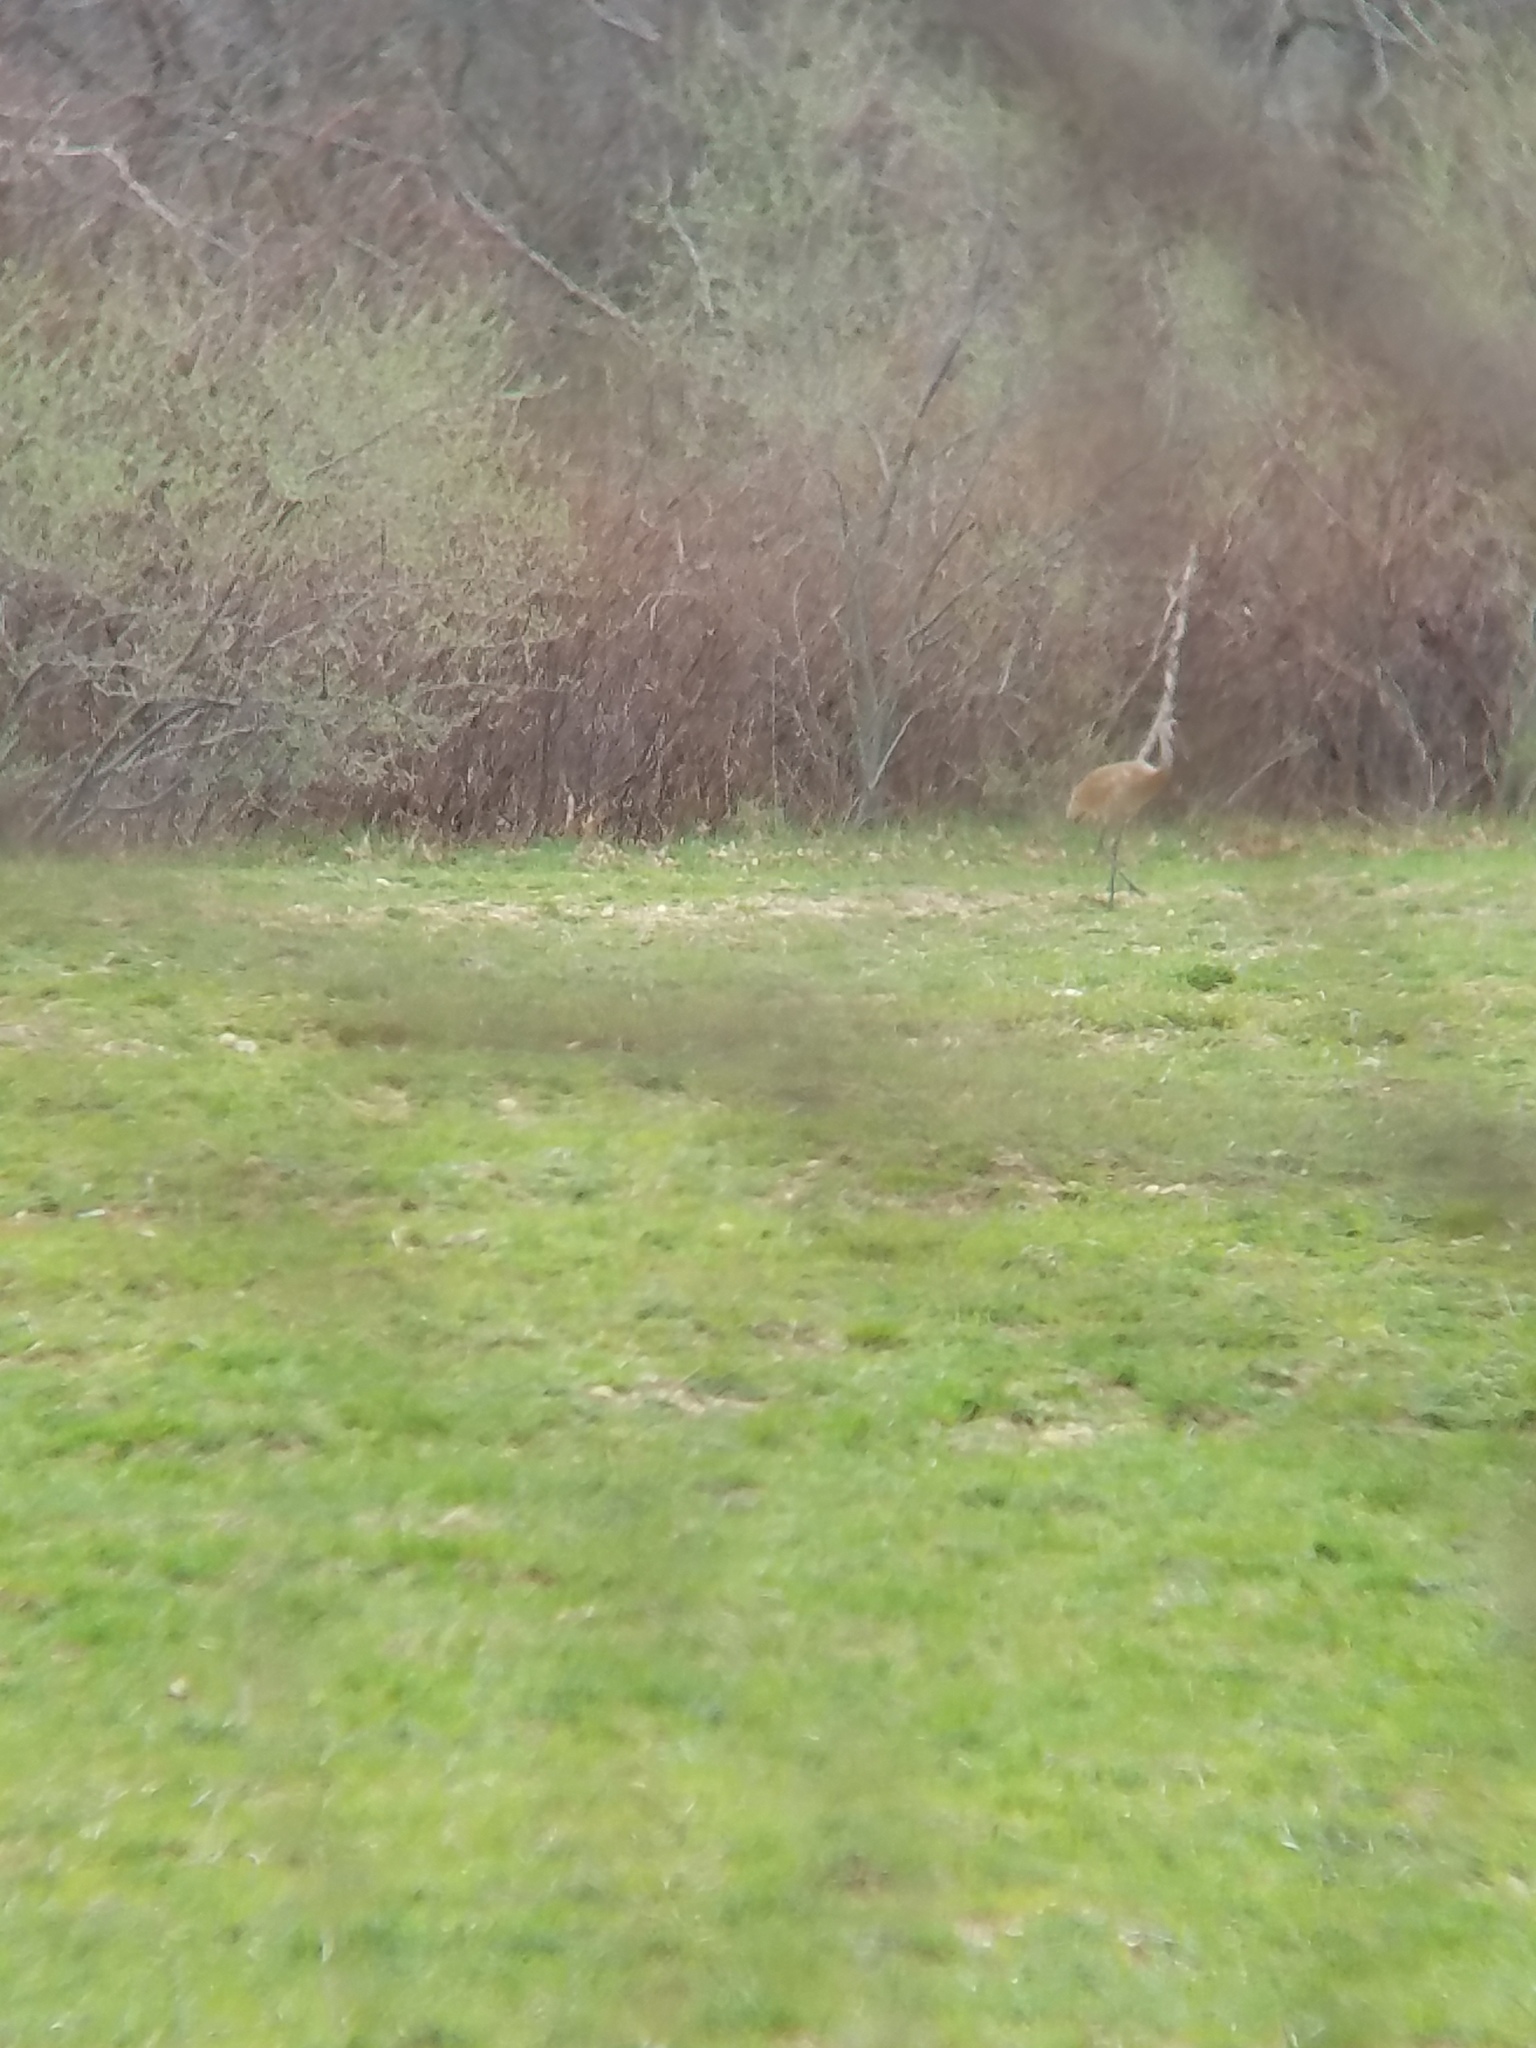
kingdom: Animalia
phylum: Chordata
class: Aves
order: Gruiformes
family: Gruidae
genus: Grus
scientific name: Grus canadensis
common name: Sandhill crane
